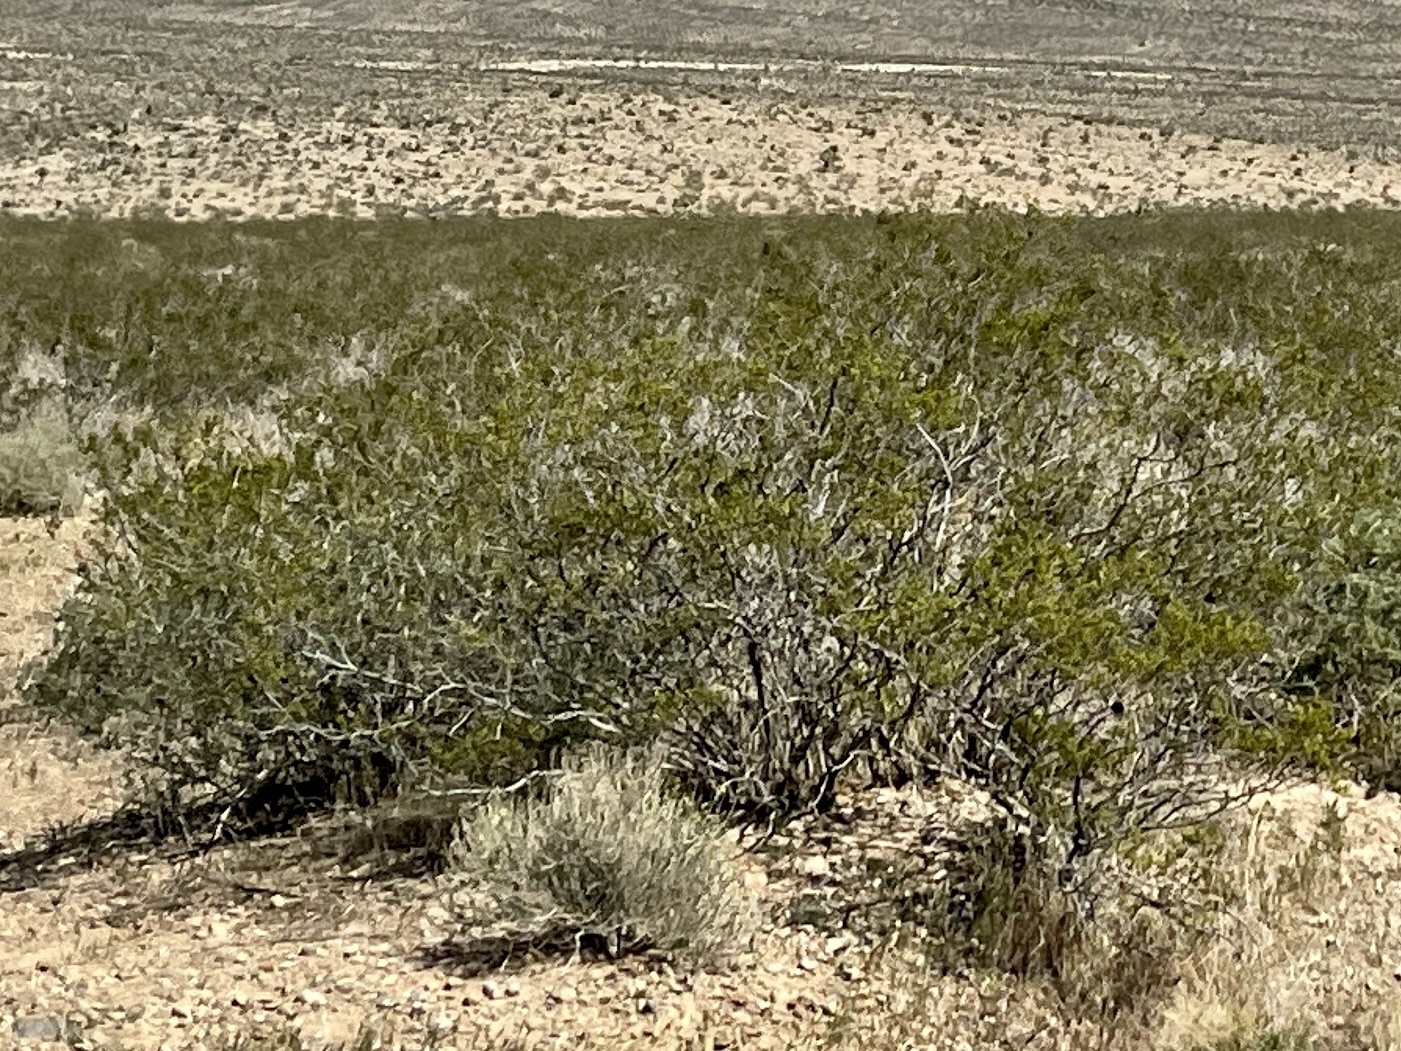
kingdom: Plantae
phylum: Tracheophyta
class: Magnoliopsida
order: Zygophyllales
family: Zygophyllaceae
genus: Larrea
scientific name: Larrea tridentata
